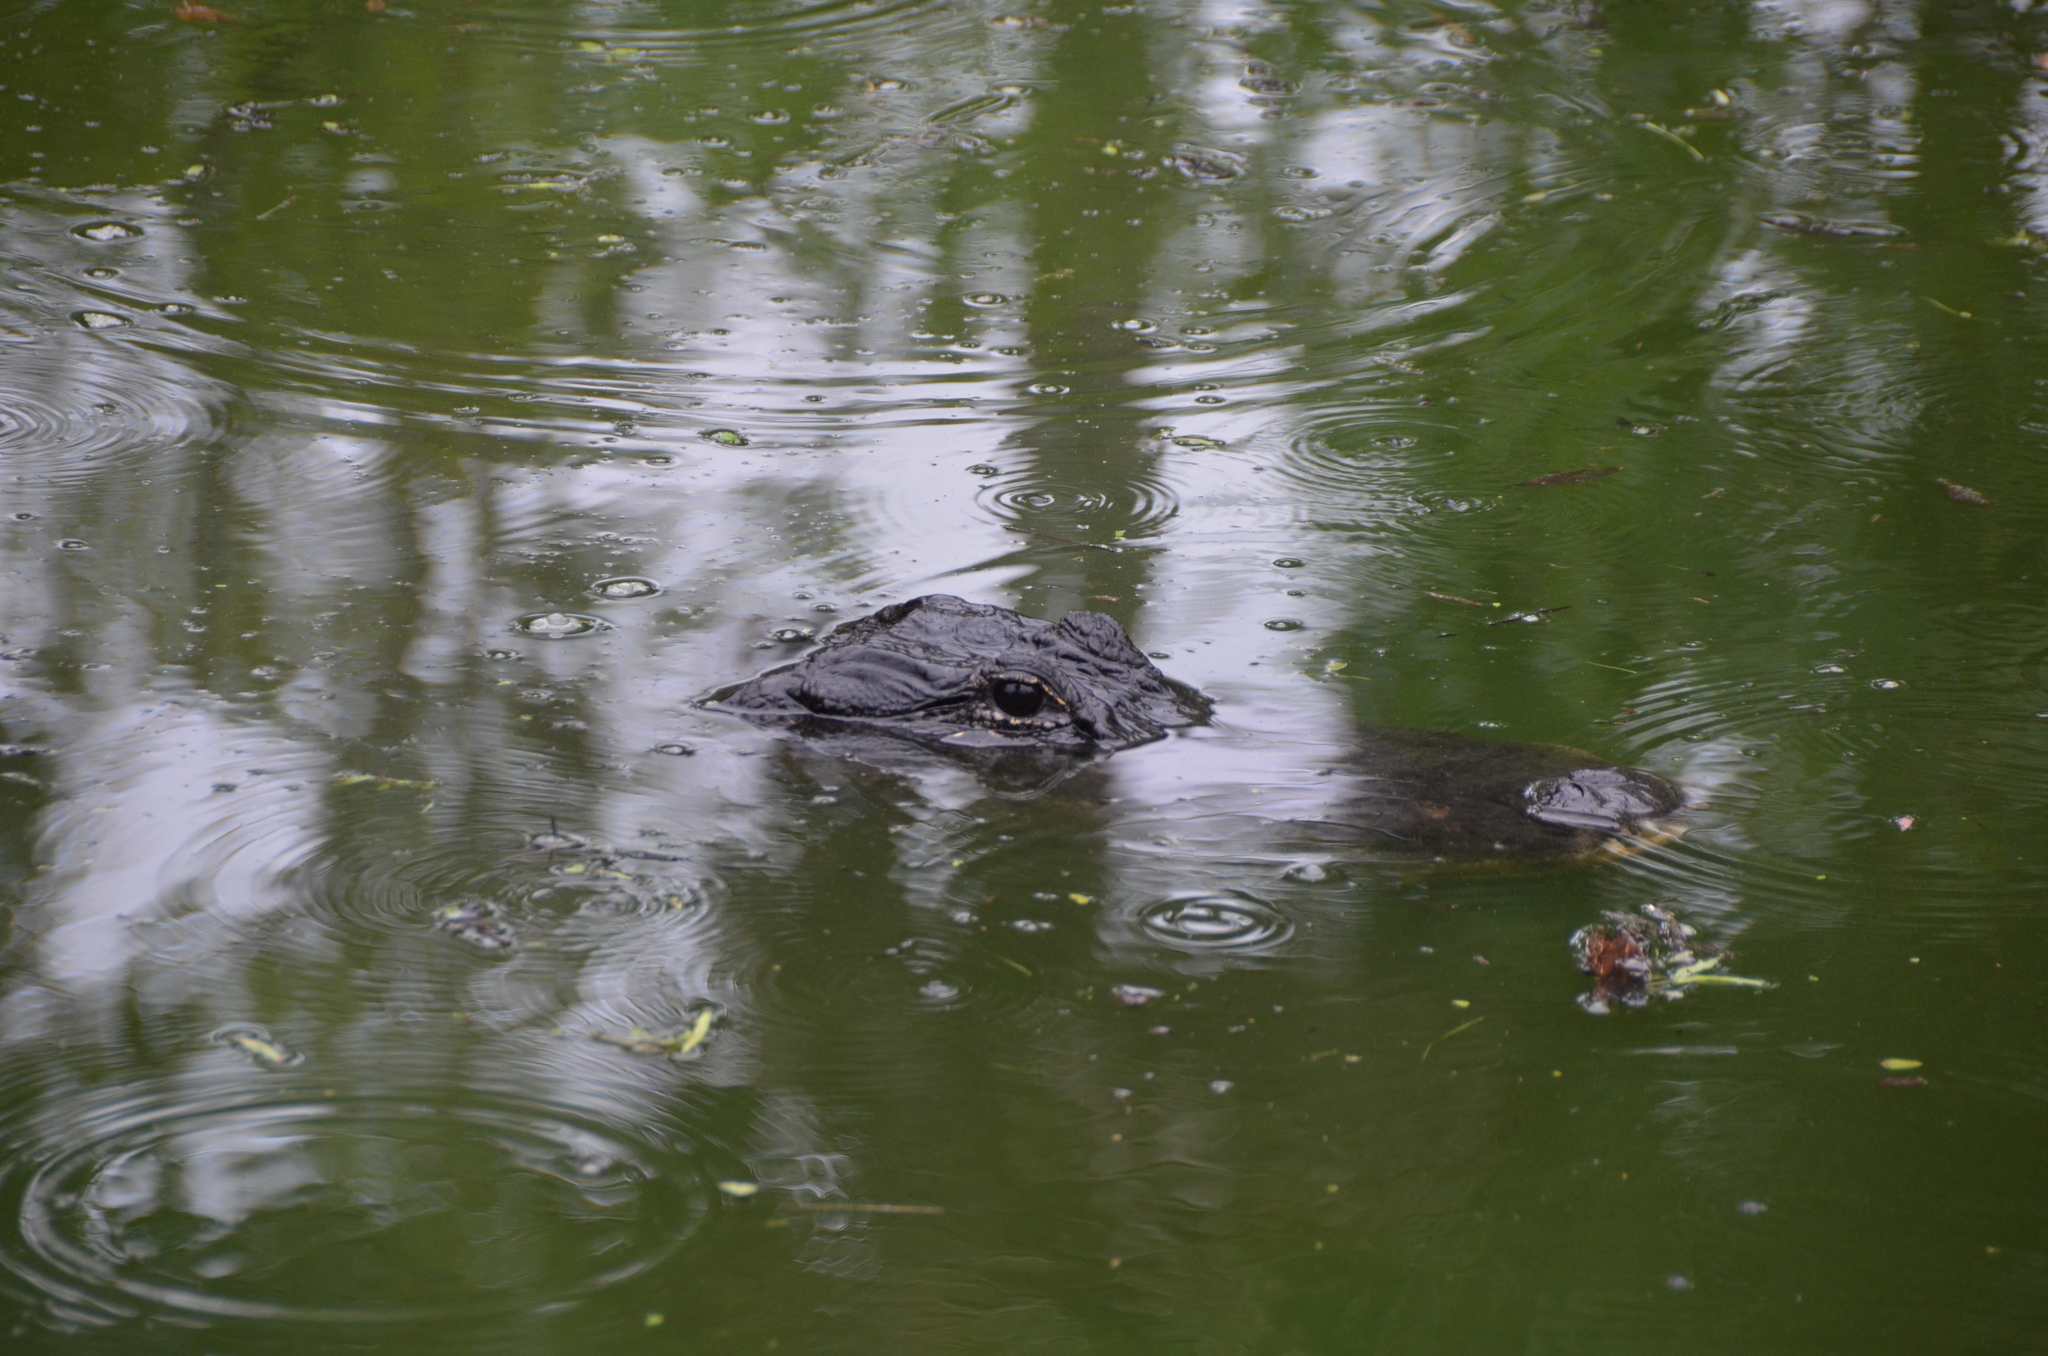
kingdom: Animalia
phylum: Chordata
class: Crocodylia
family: Alligatoridae
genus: Alligator
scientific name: Alligator mississippiensis
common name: American alligator
